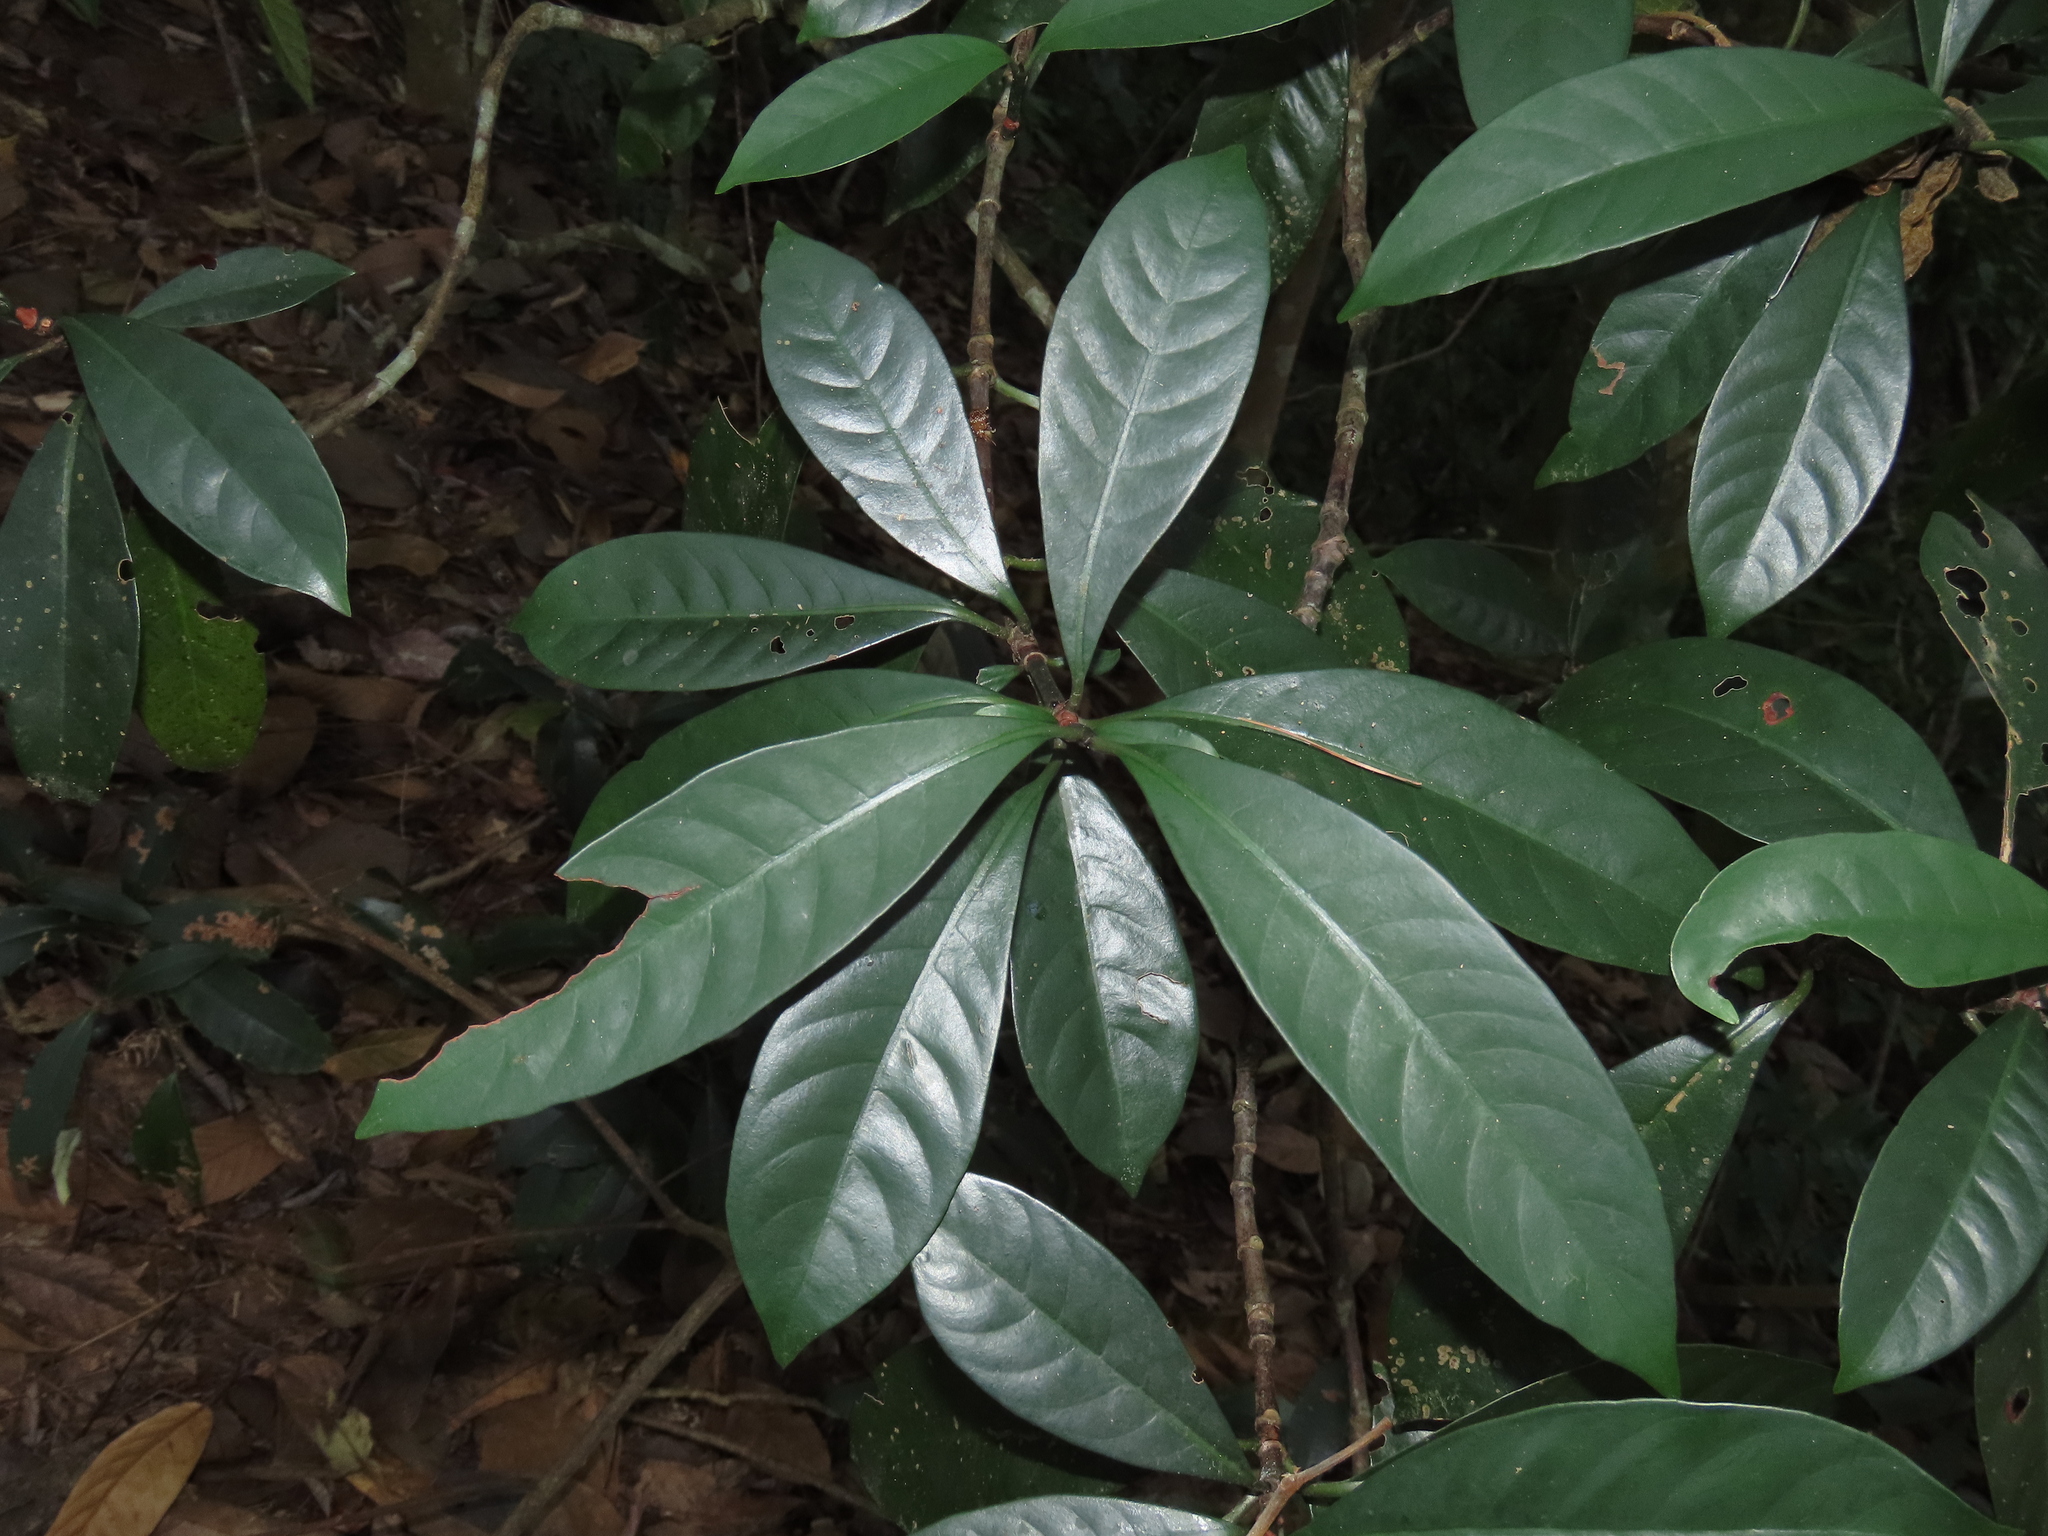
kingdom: Plantae
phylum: Tracheophyta
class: Magnoliopsida
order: Gentianales
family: Rubiaceae
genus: Psychotria
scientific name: Psychotria asiatica
